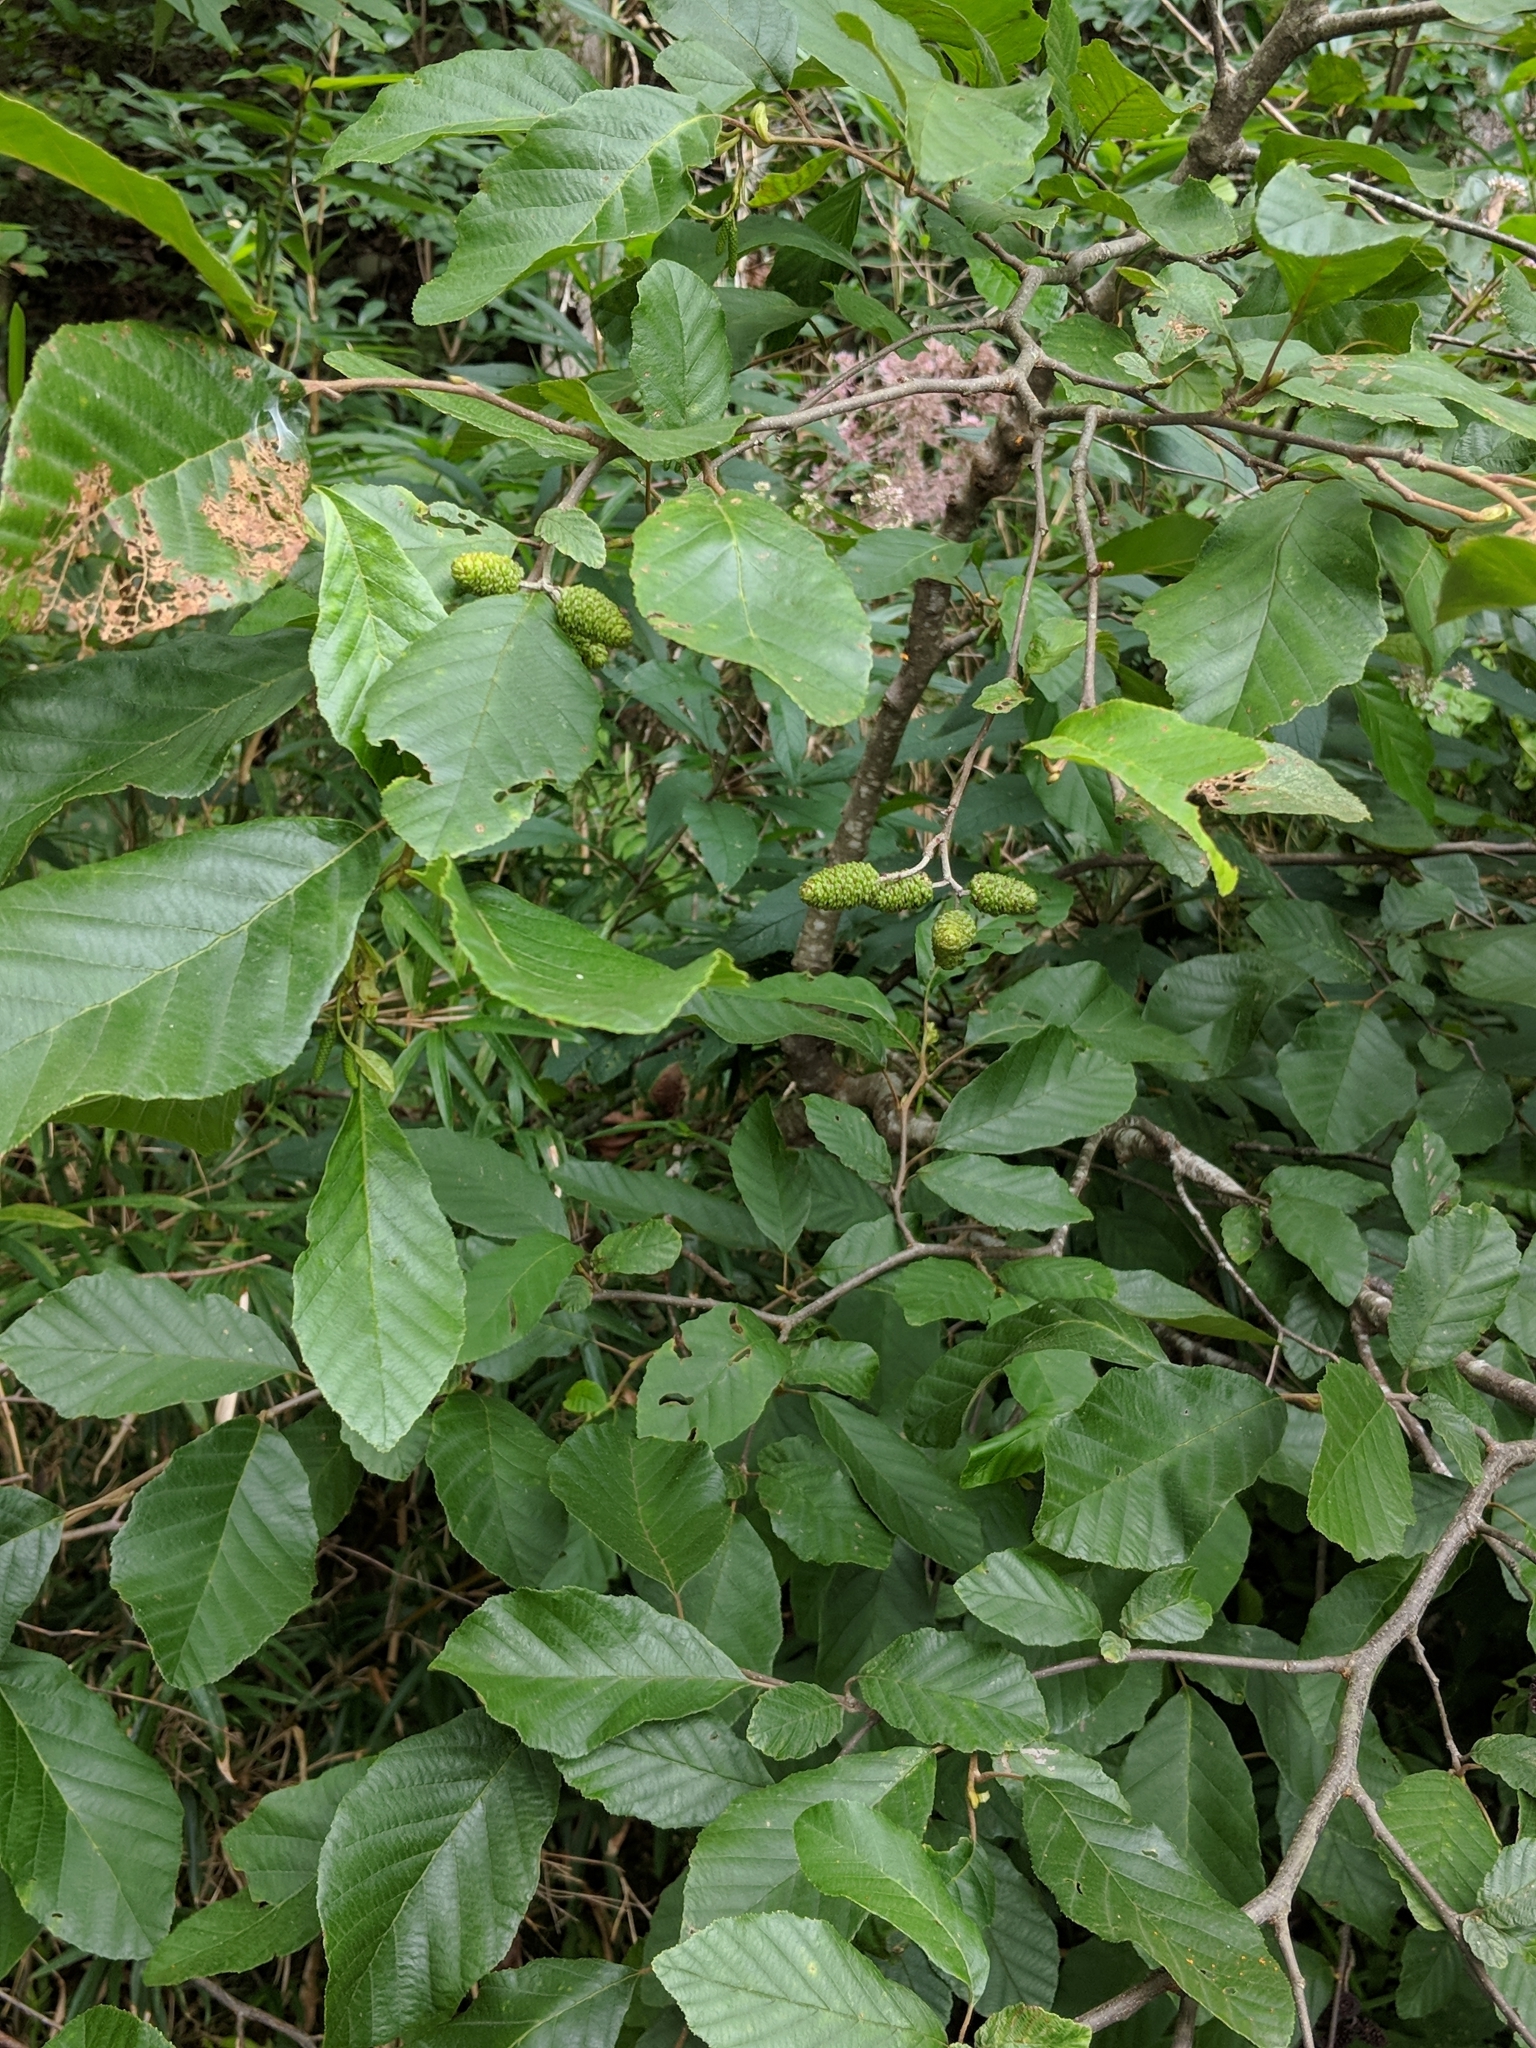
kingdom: Plantae
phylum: Tracheophyta
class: Magnoliopsida
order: Fagales
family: Betulaceae
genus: Alnus
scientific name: Alnus serrulata
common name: Hazel alder
